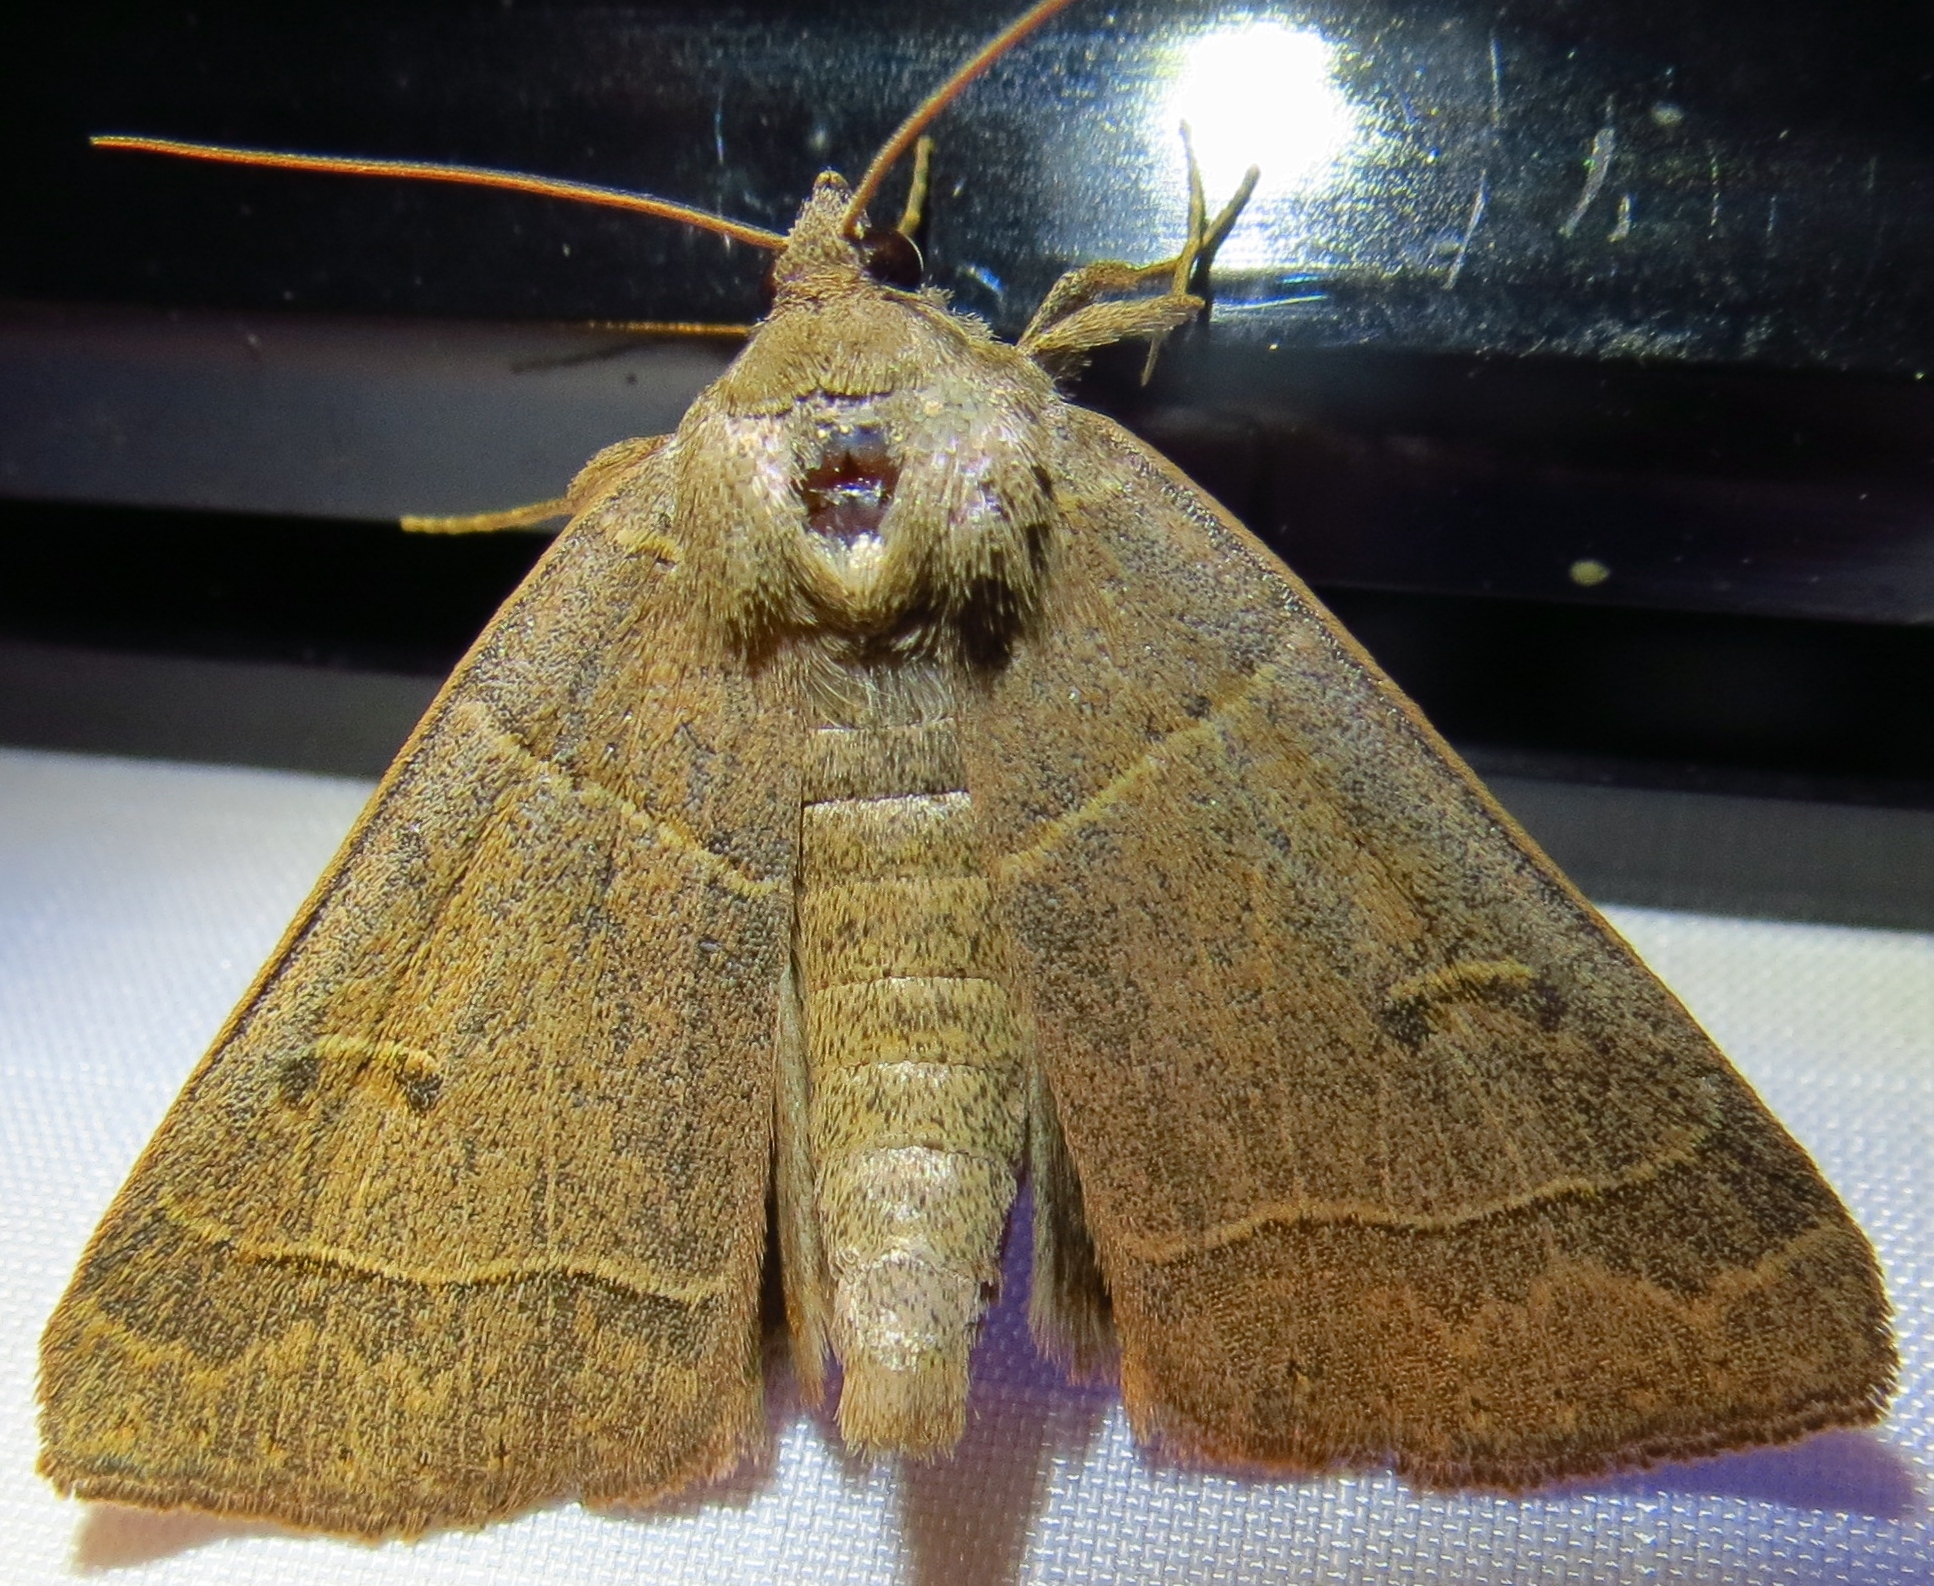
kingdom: Animalia
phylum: Arthropoda
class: Insecta
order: Lepidoptera
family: Erebidae
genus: Phoberia
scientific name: Phoberia atomaris
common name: Common oak moth
